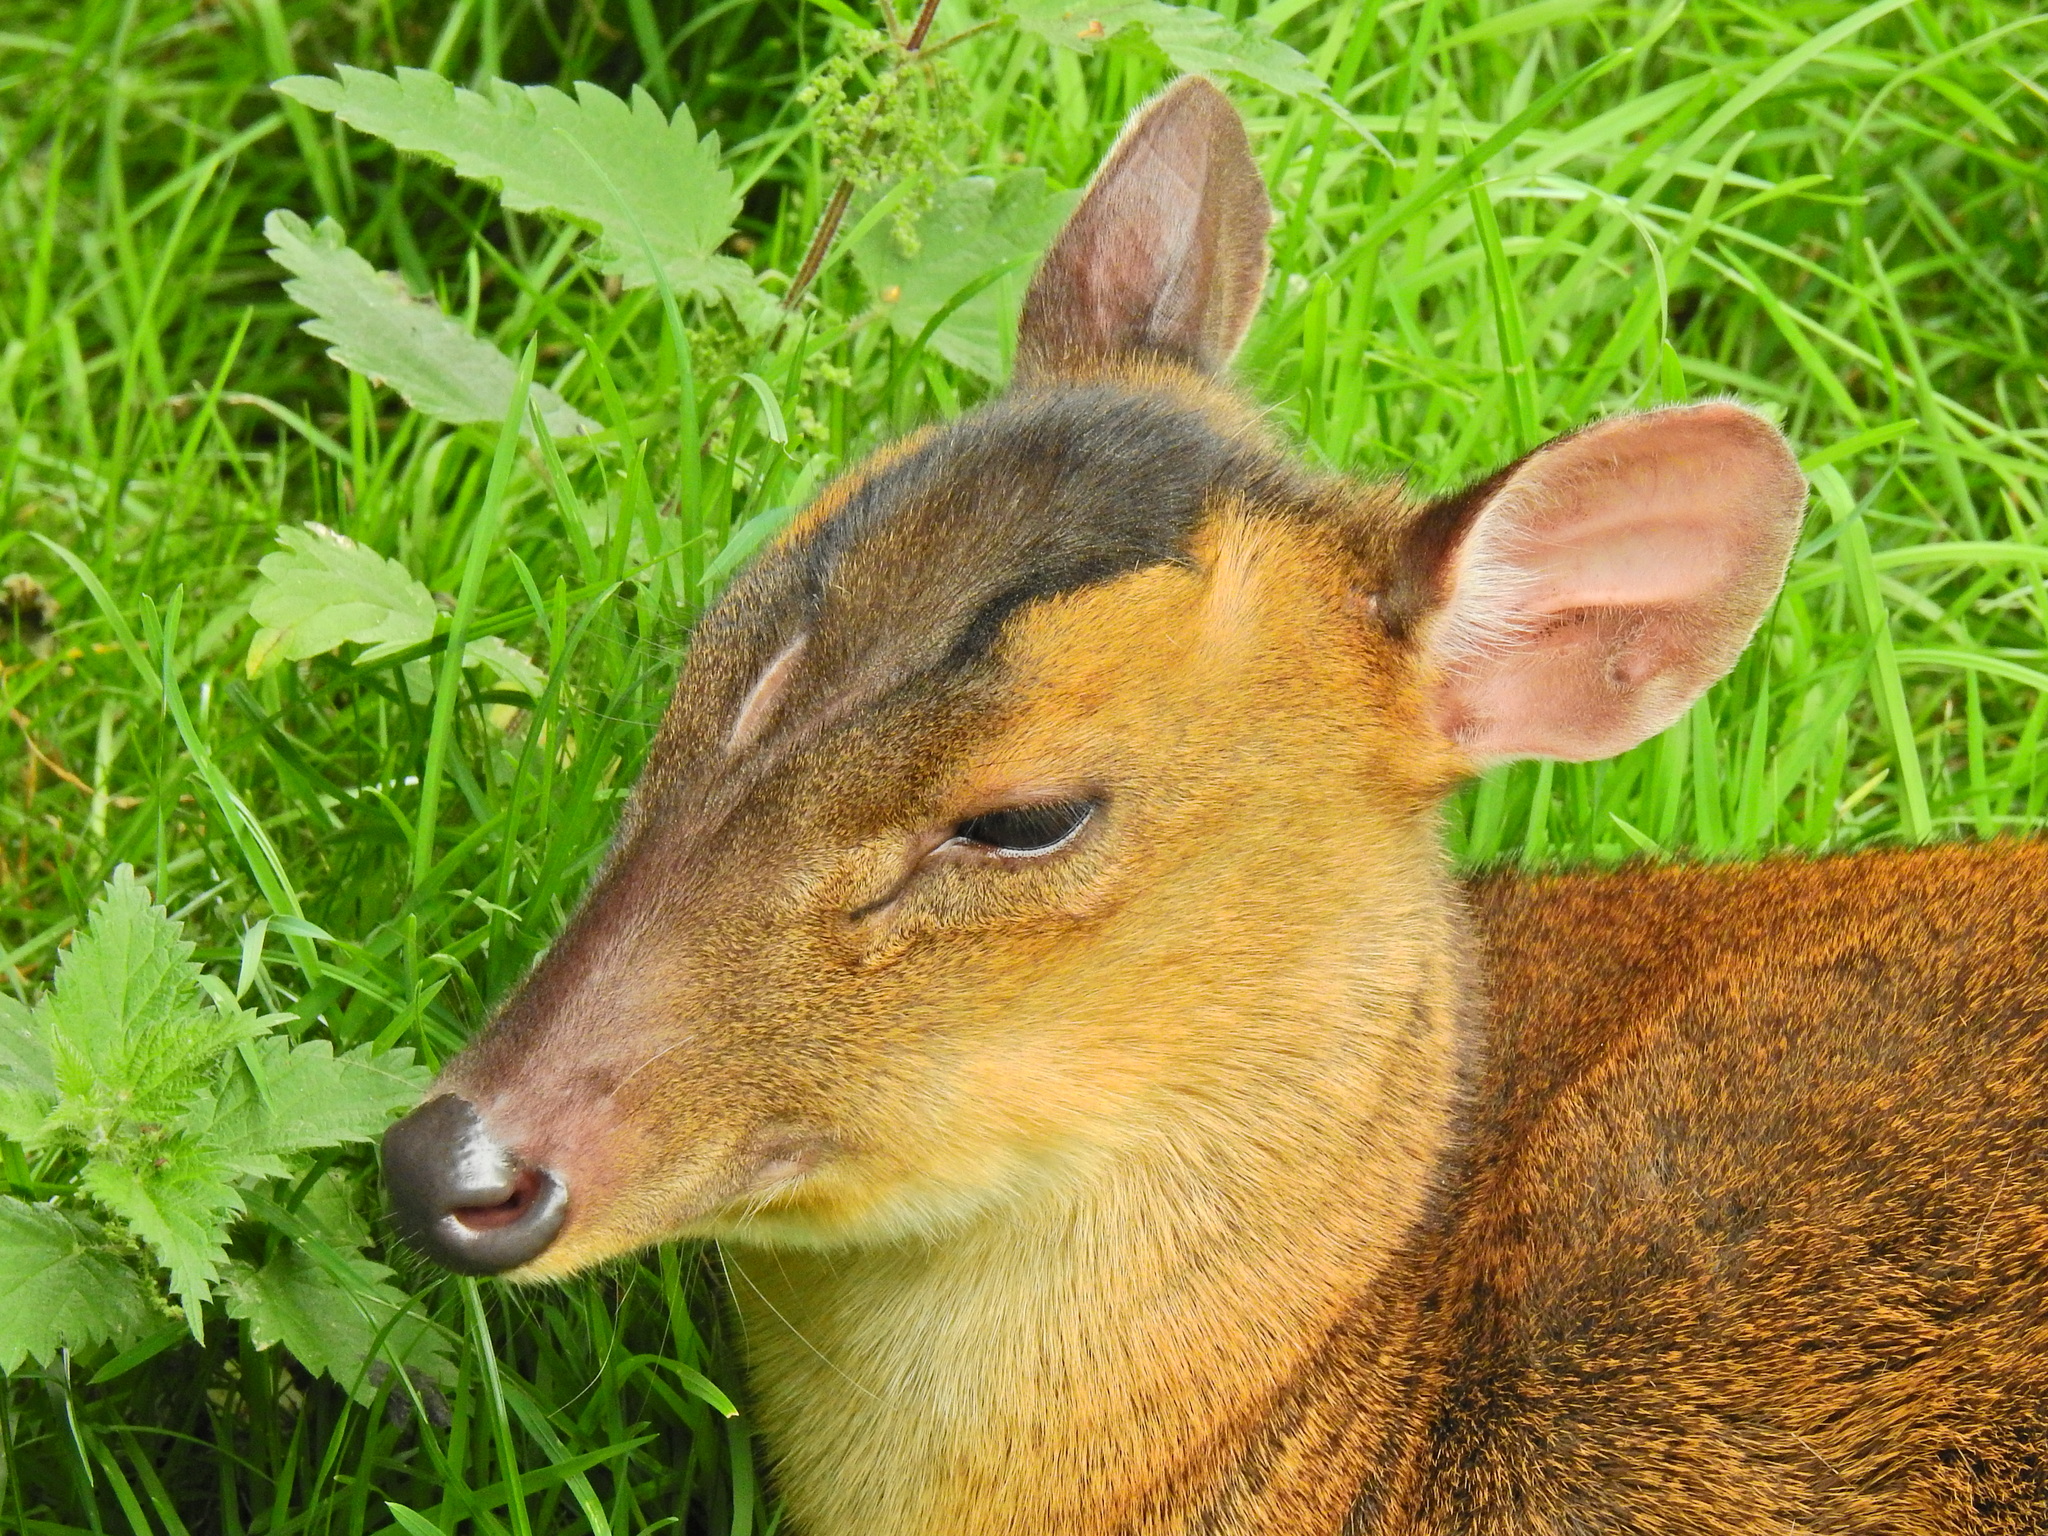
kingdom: Animalia
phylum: Chordata
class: Mammalia
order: Artiodactyla
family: Cervidae
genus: Muntiacus
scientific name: Muntiacus reevesi
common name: Reeves' muntjac
